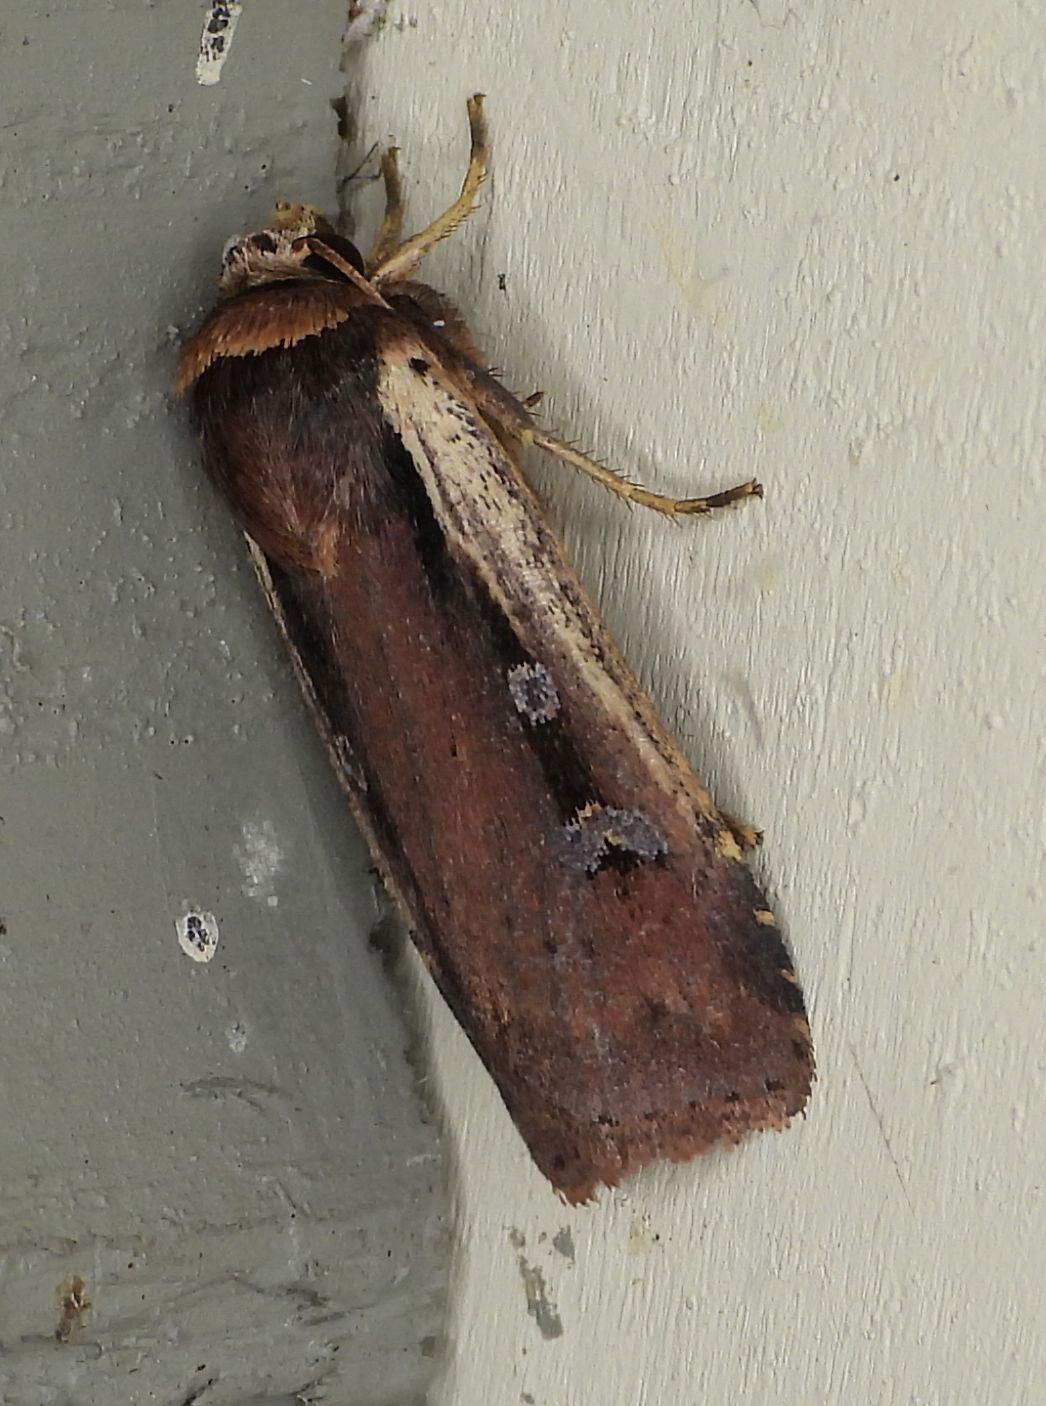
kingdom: Animalia
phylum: Arthropoda
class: Insecta
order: Lepidoptera
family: Noctuidae
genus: Ochropleura
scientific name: Ochropleura implecta
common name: Flame-shouldered dart
